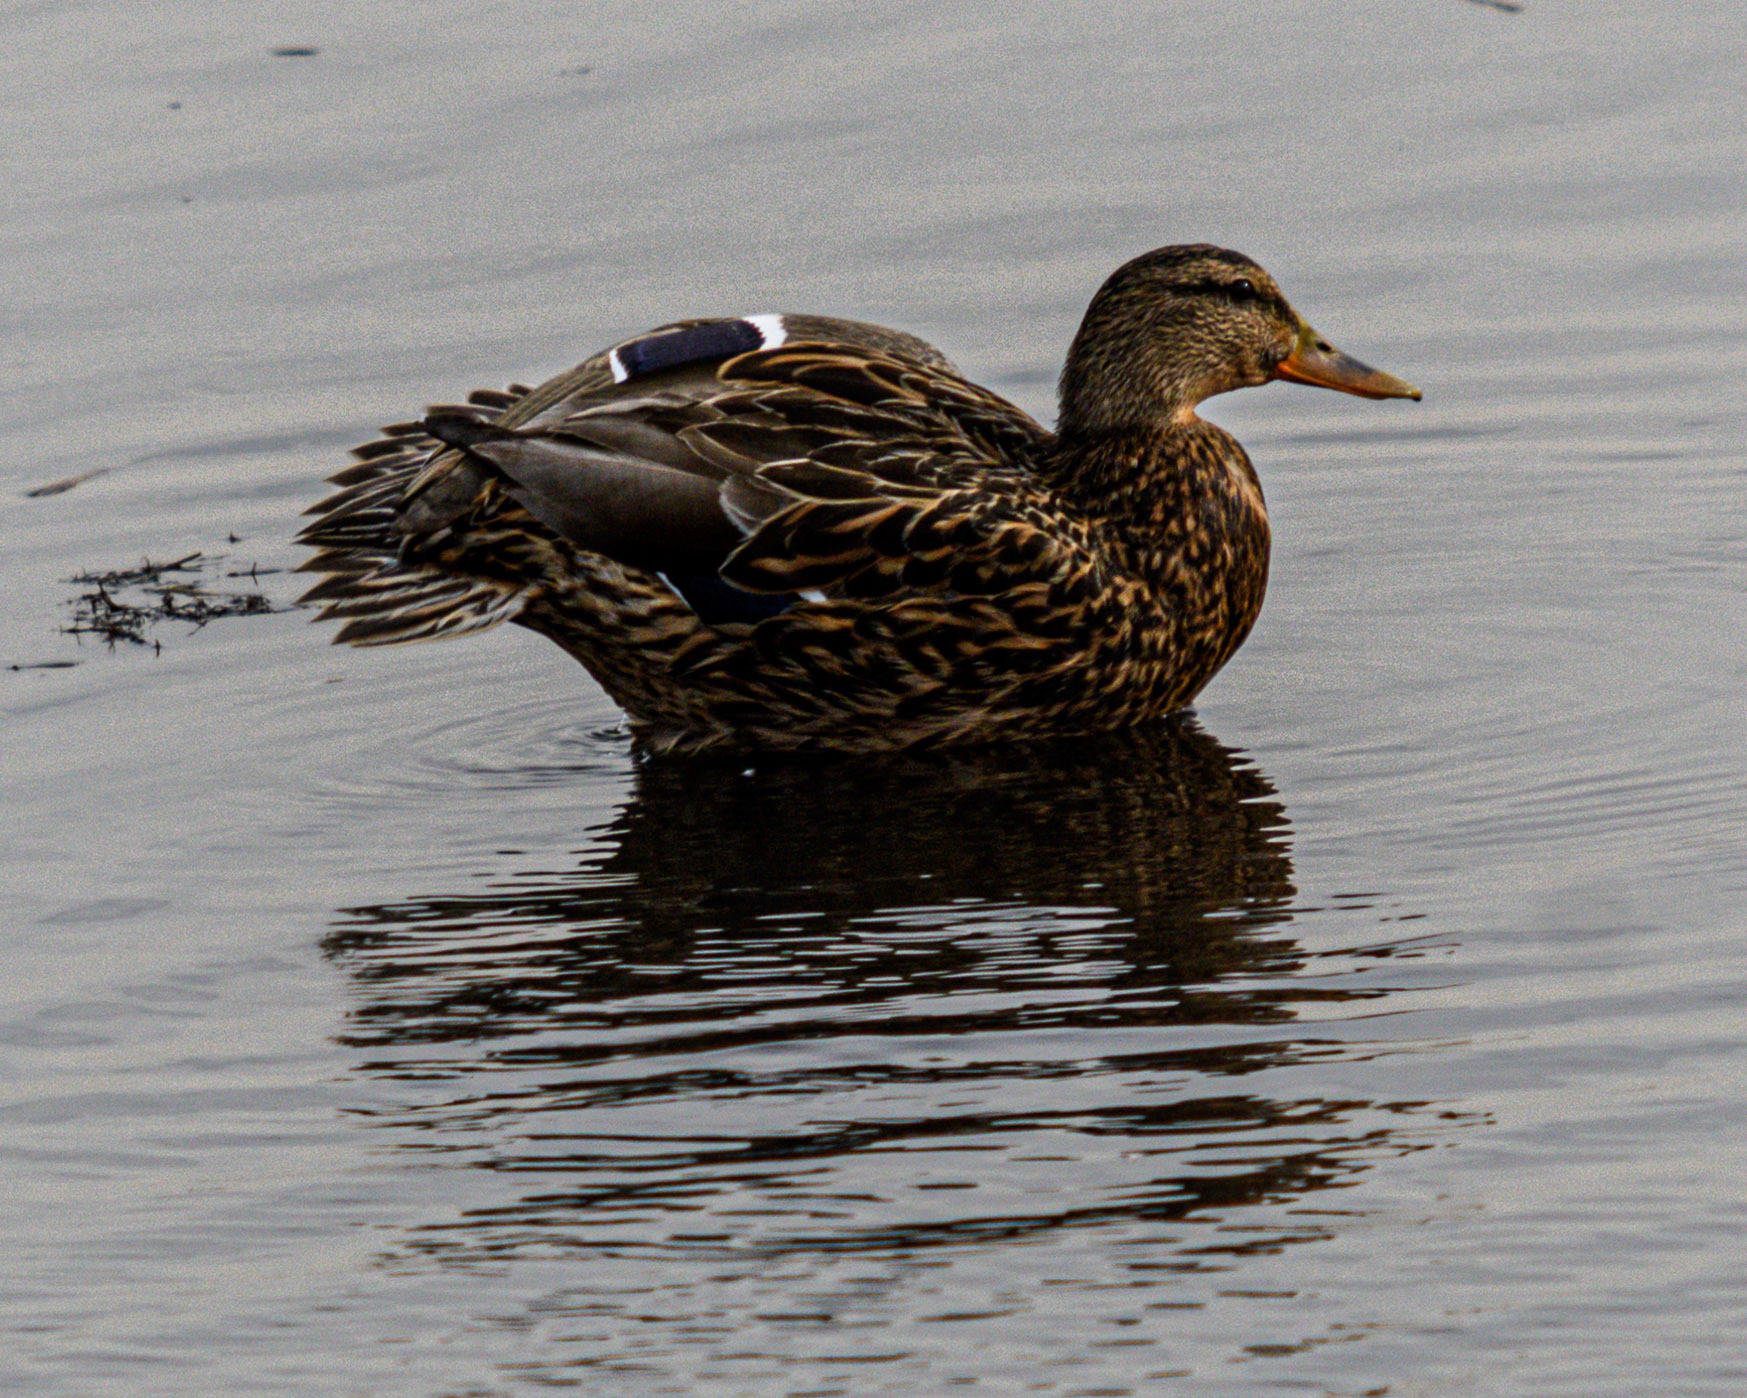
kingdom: Animalia
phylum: Chordata
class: Aves
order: Anseriformes
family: Anatidae
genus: Anas
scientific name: Anas platyrhynchos
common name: Mallard
